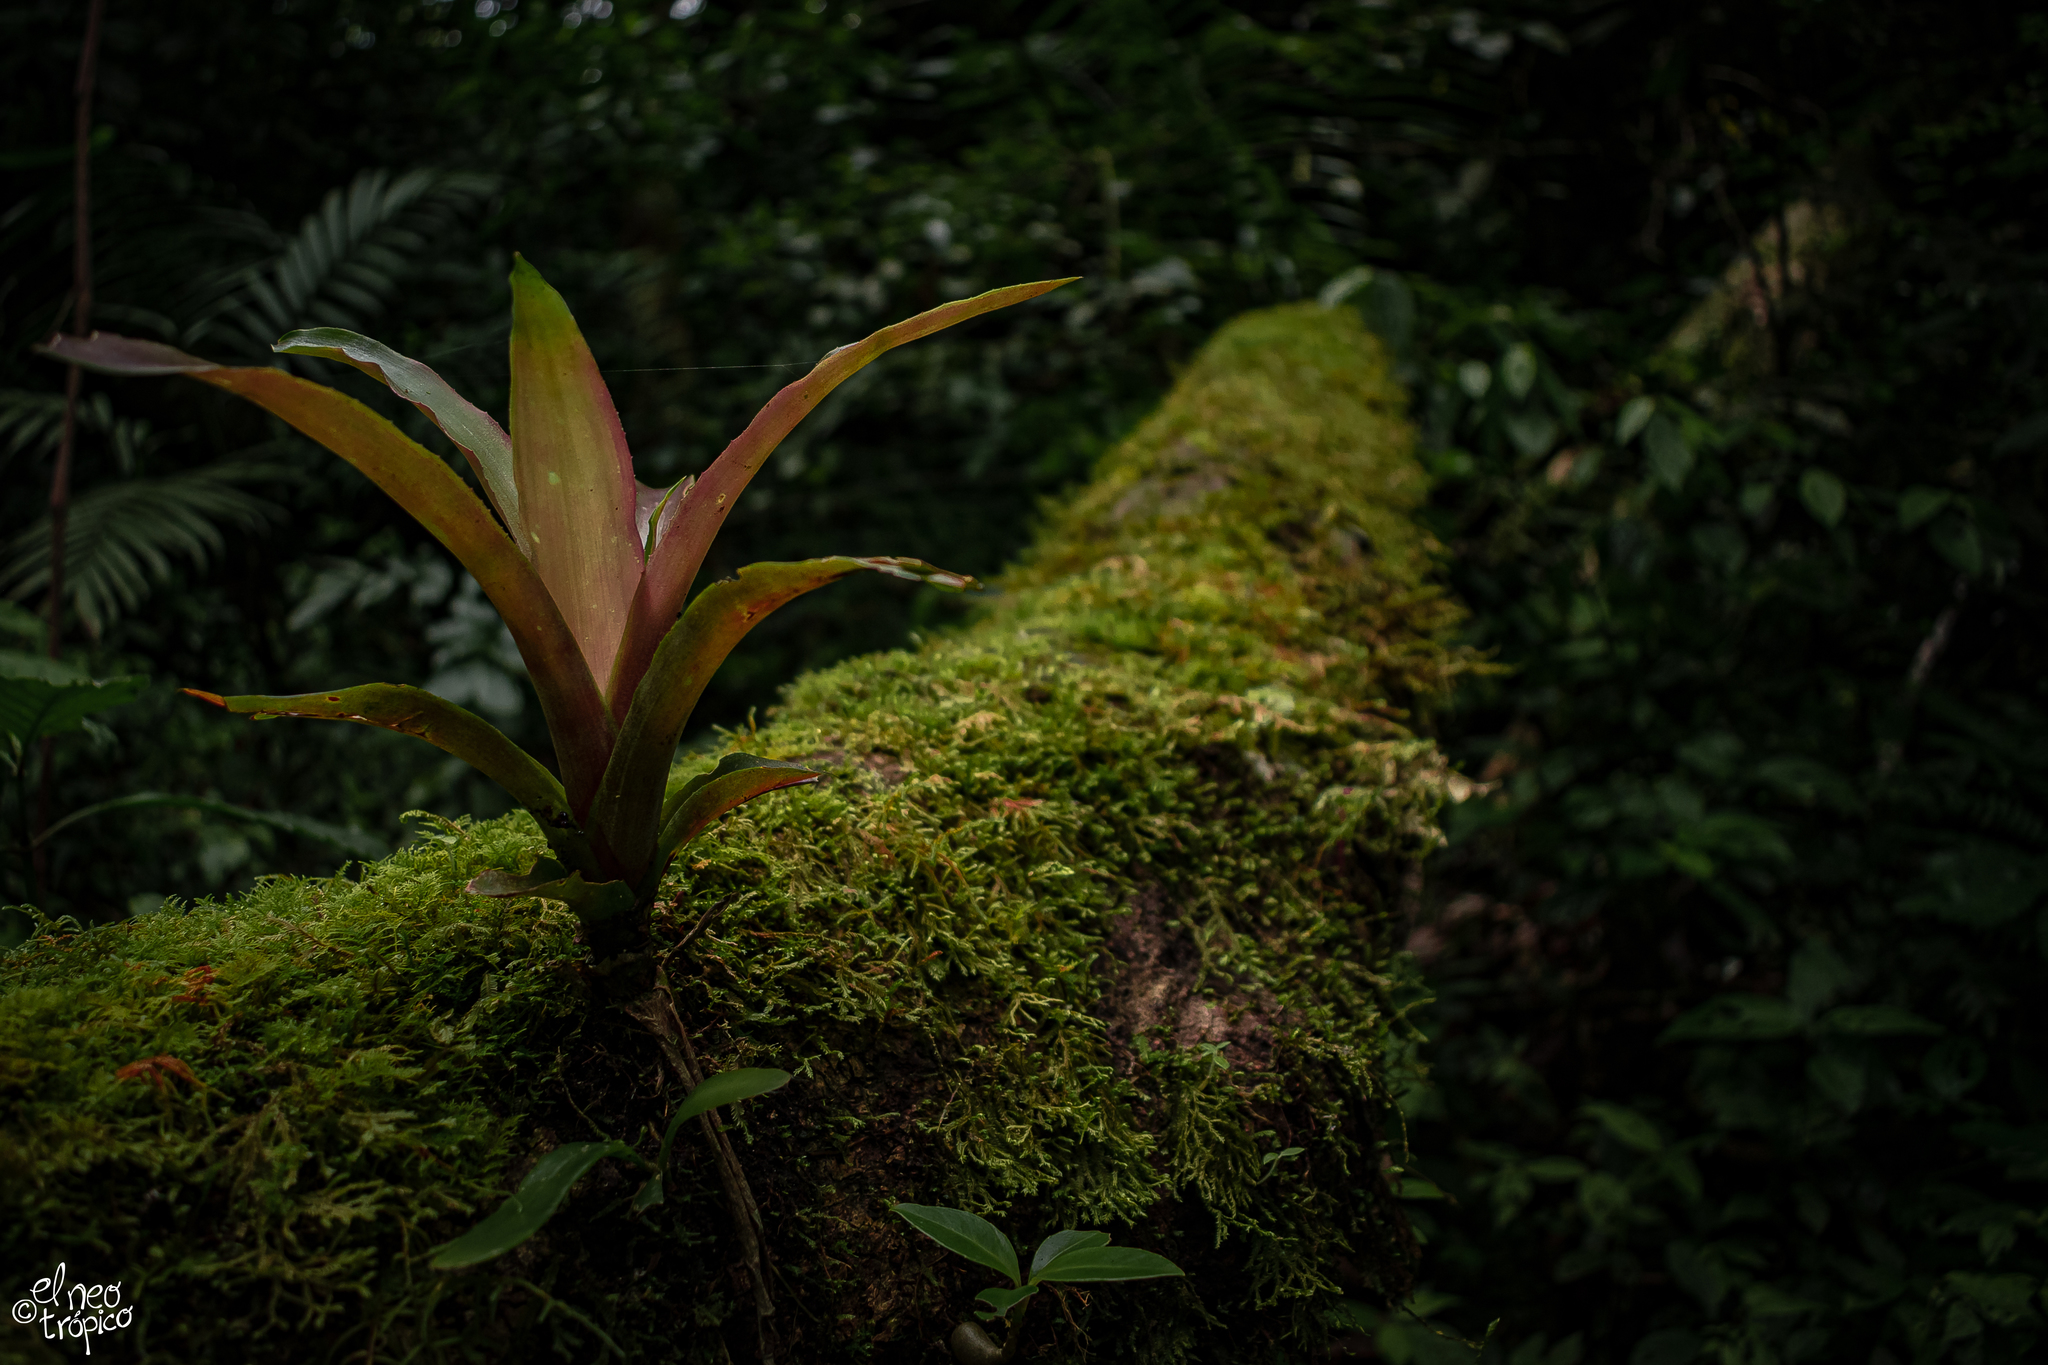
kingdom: Plantae
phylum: Tracheophyta
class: Liliopsida
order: Poales
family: Bromeliaceae
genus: Aechmea
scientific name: Aechmea mexicana
